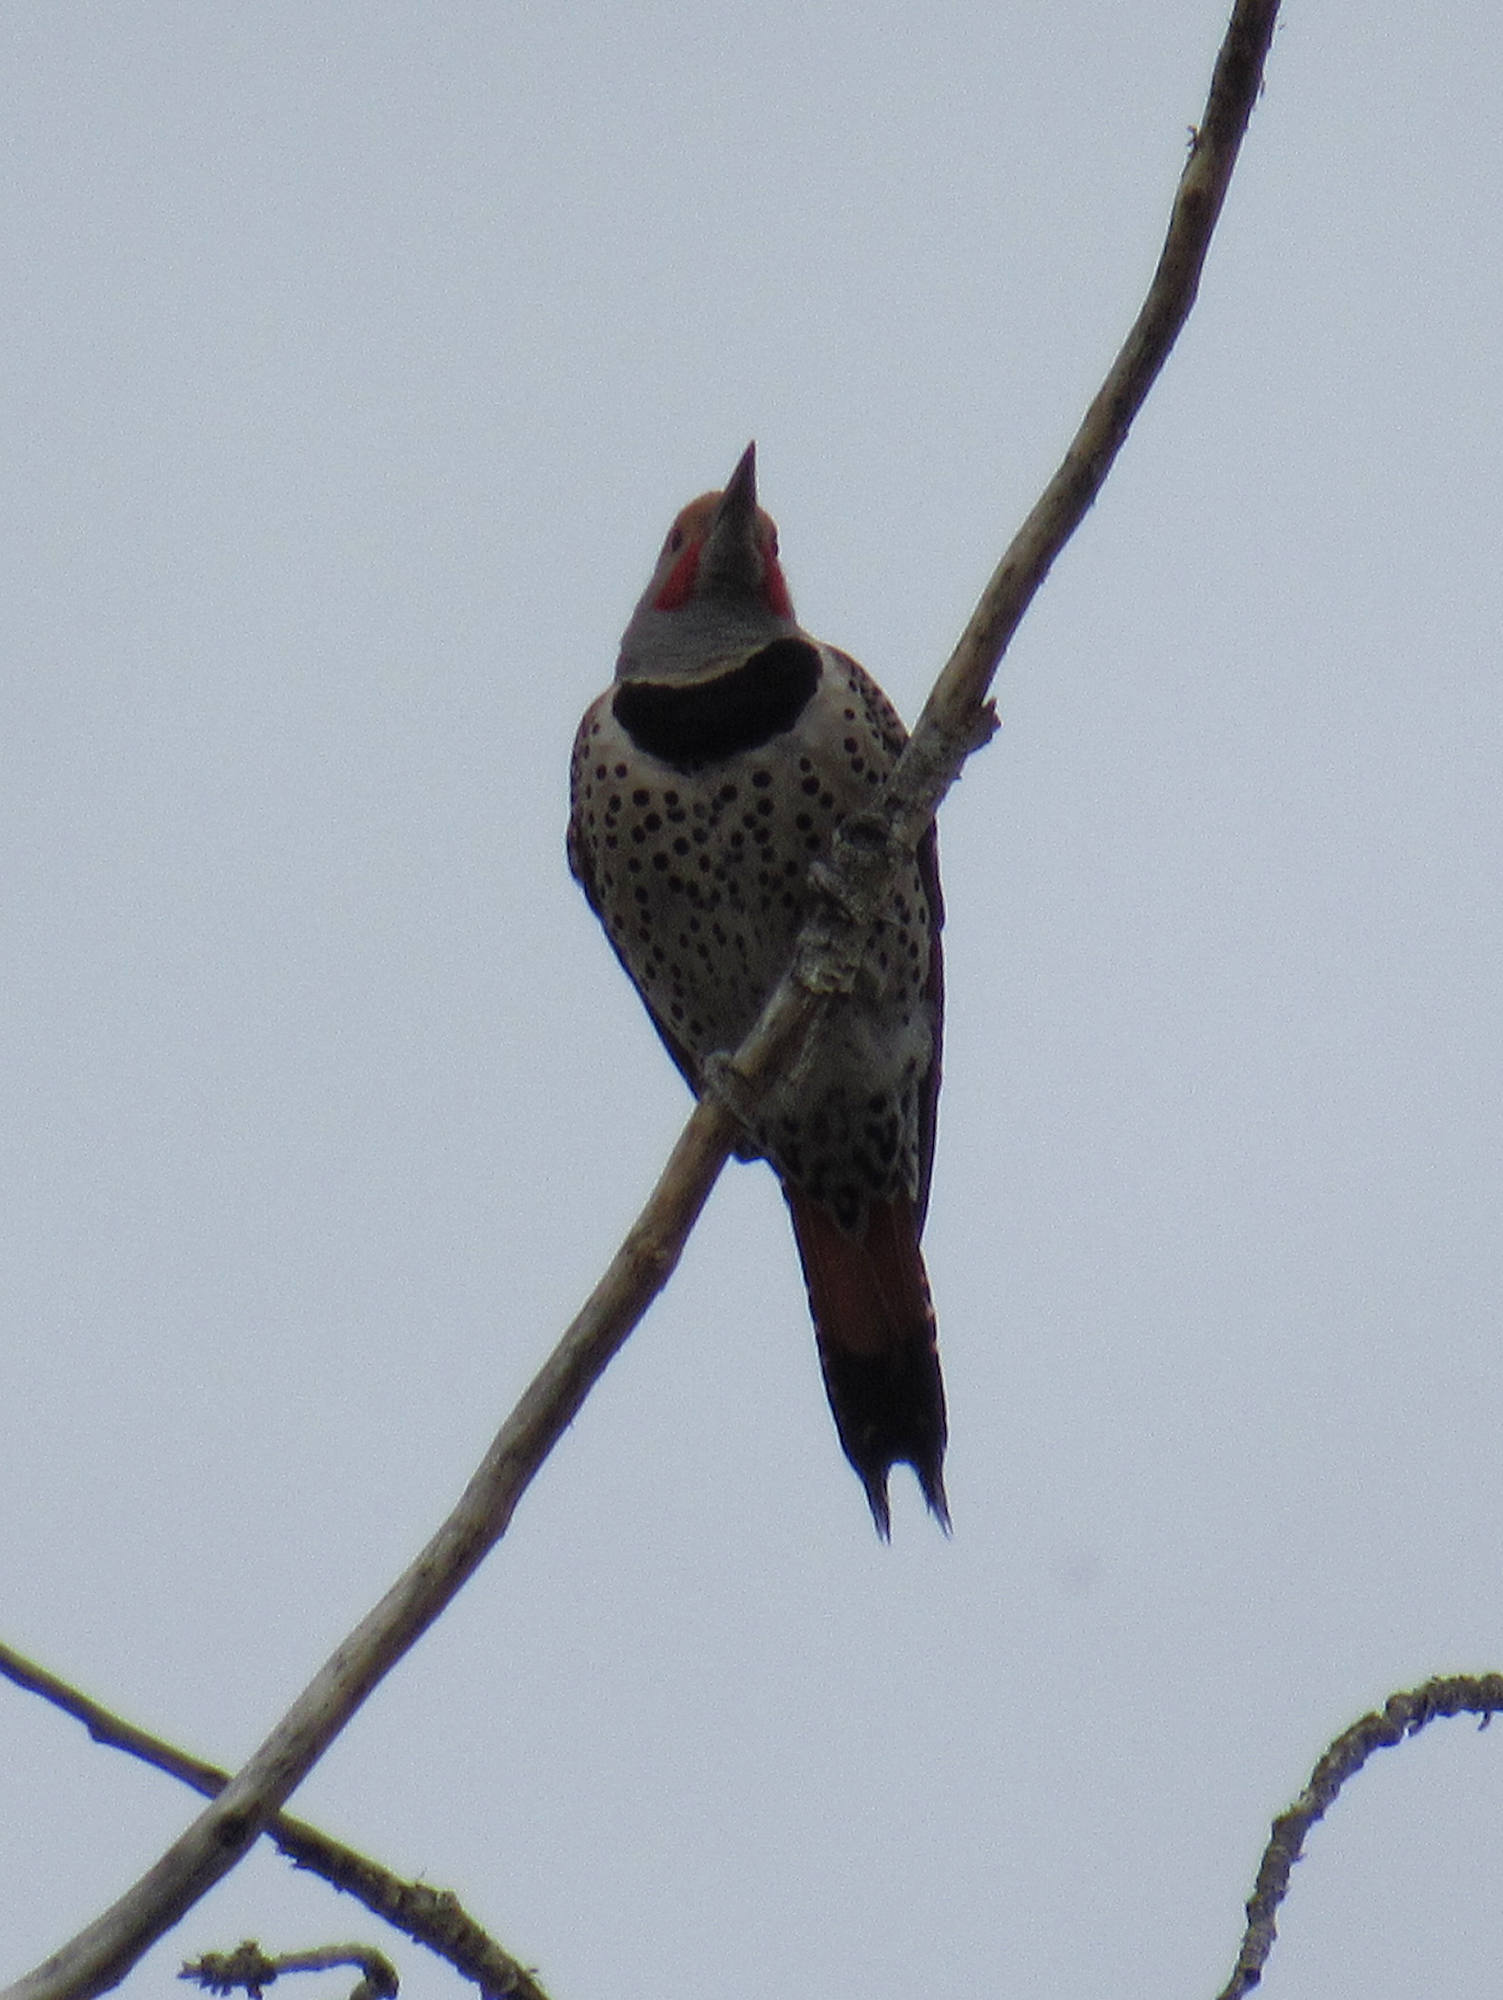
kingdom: Animalia
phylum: Chordata
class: Aves
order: Piciformes
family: Picidae
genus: Colaptes
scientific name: Colaptes auratus
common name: Northern flicker
